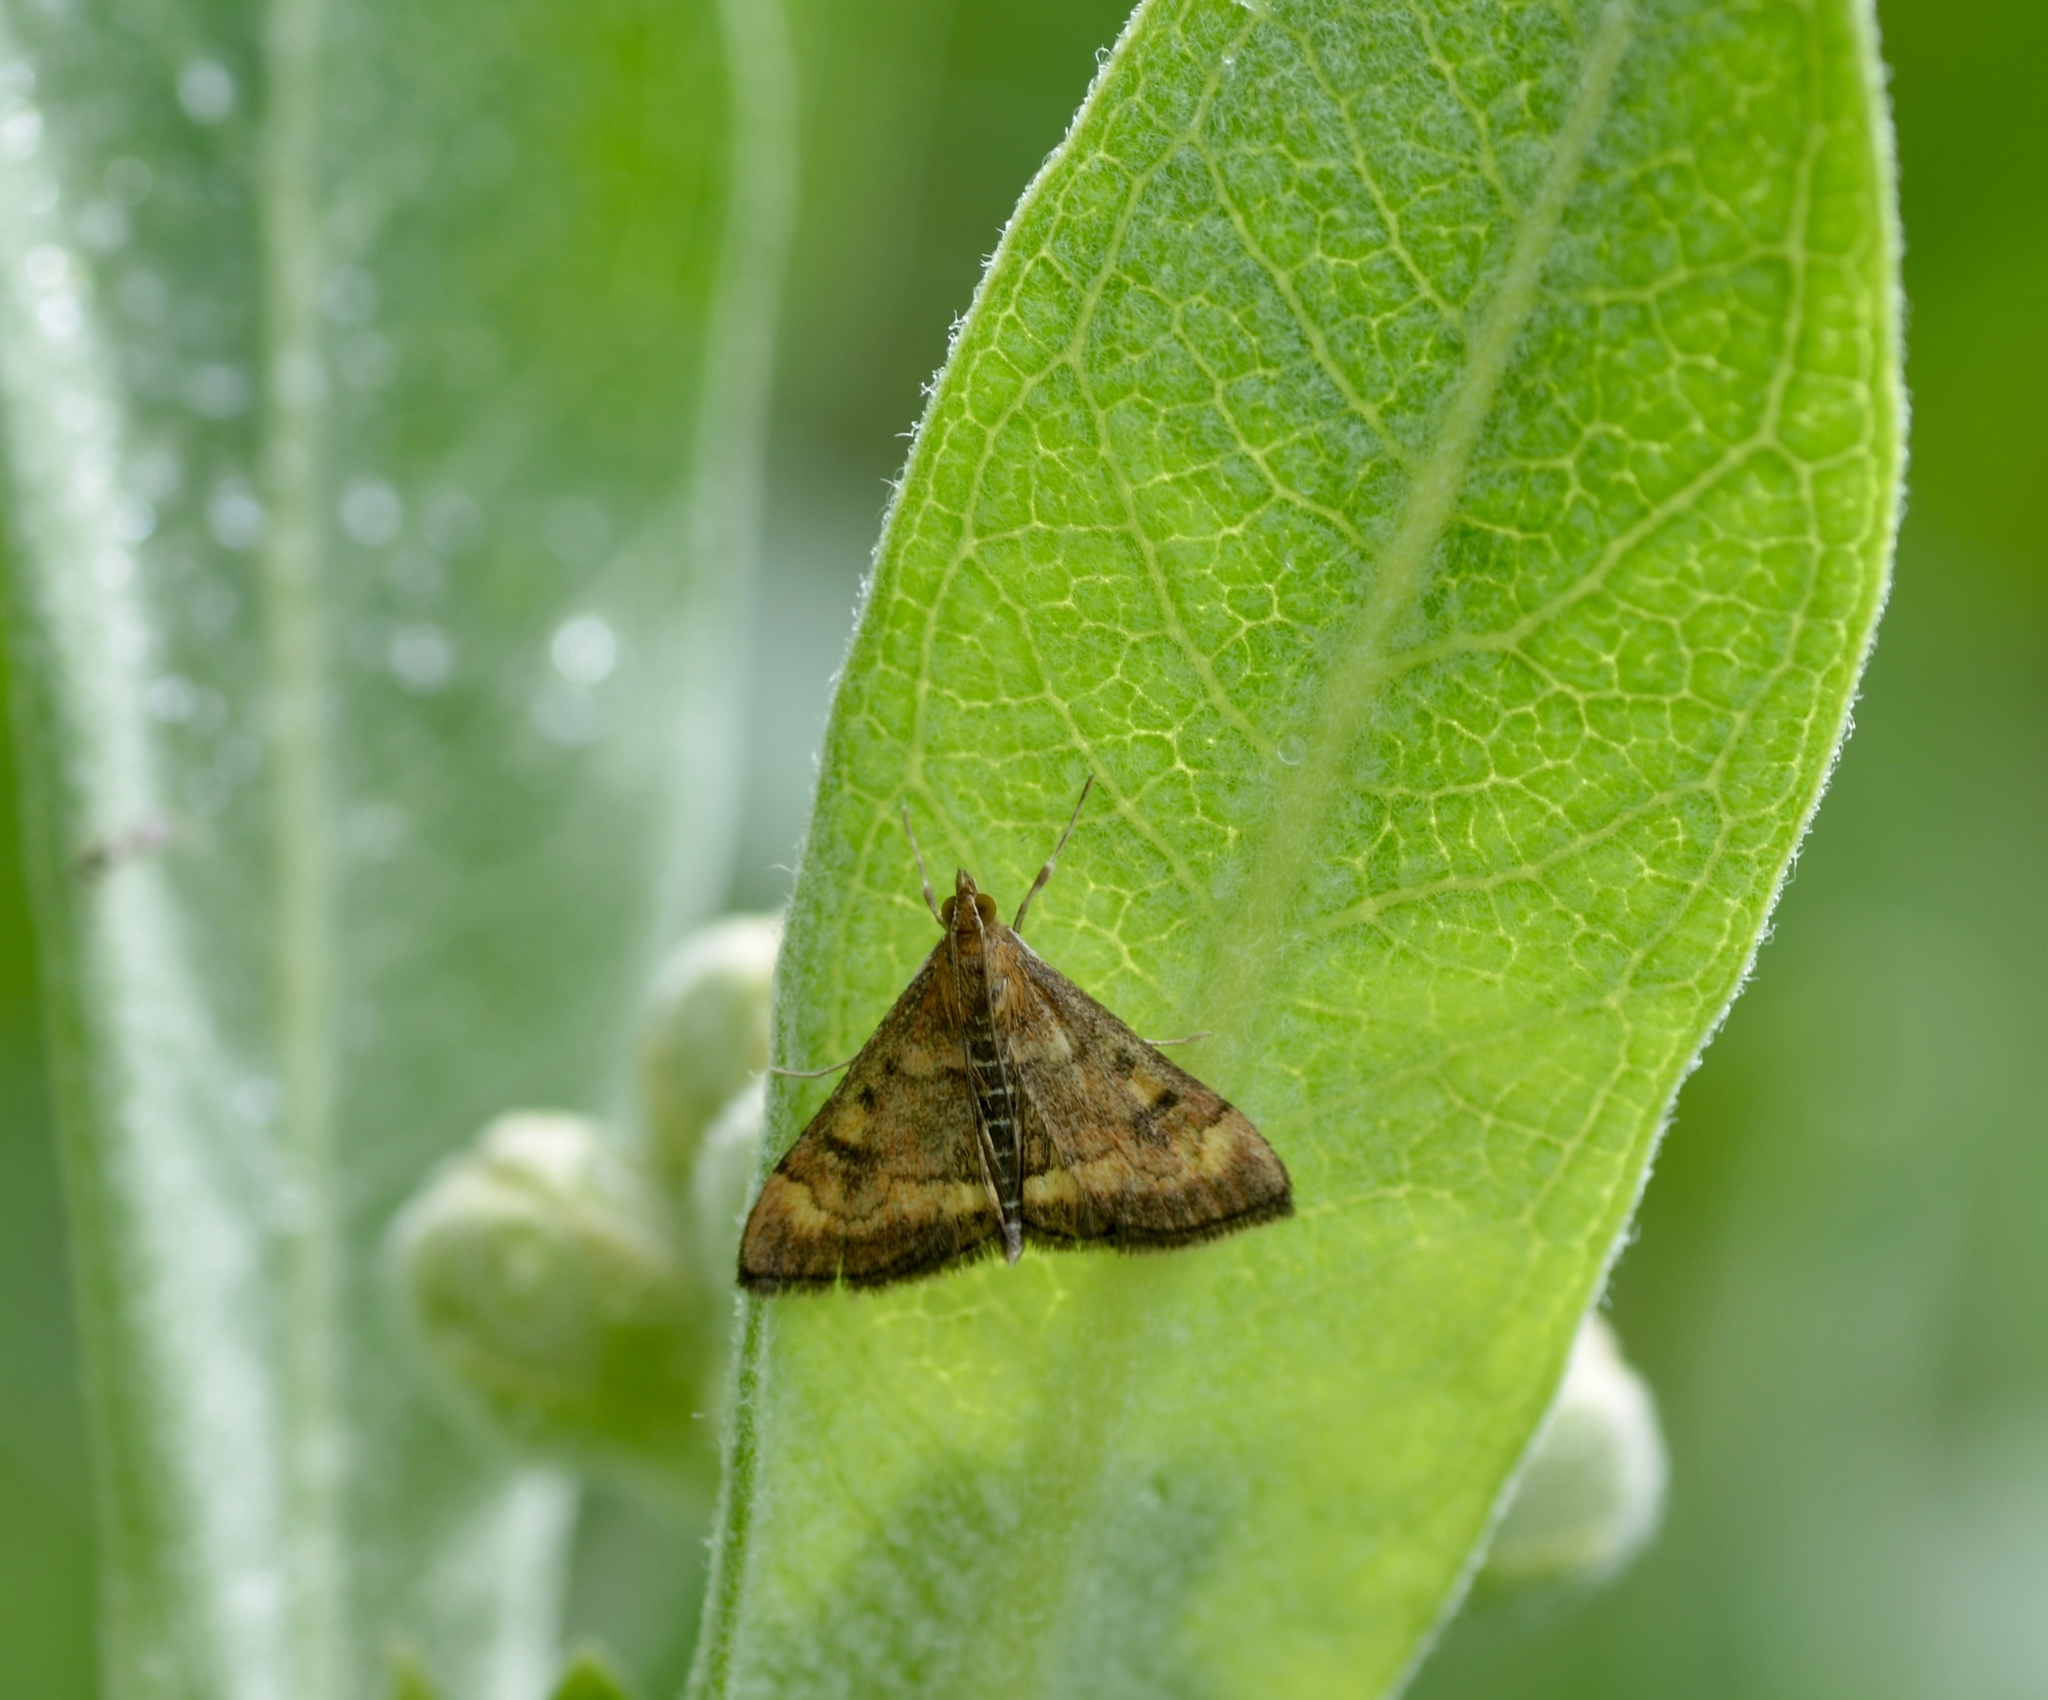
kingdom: Animalia
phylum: Arthropoda
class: Insecta
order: Lepidoptera
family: Crambidae
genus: Pyrausta
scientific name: Pyrausta californicalis
